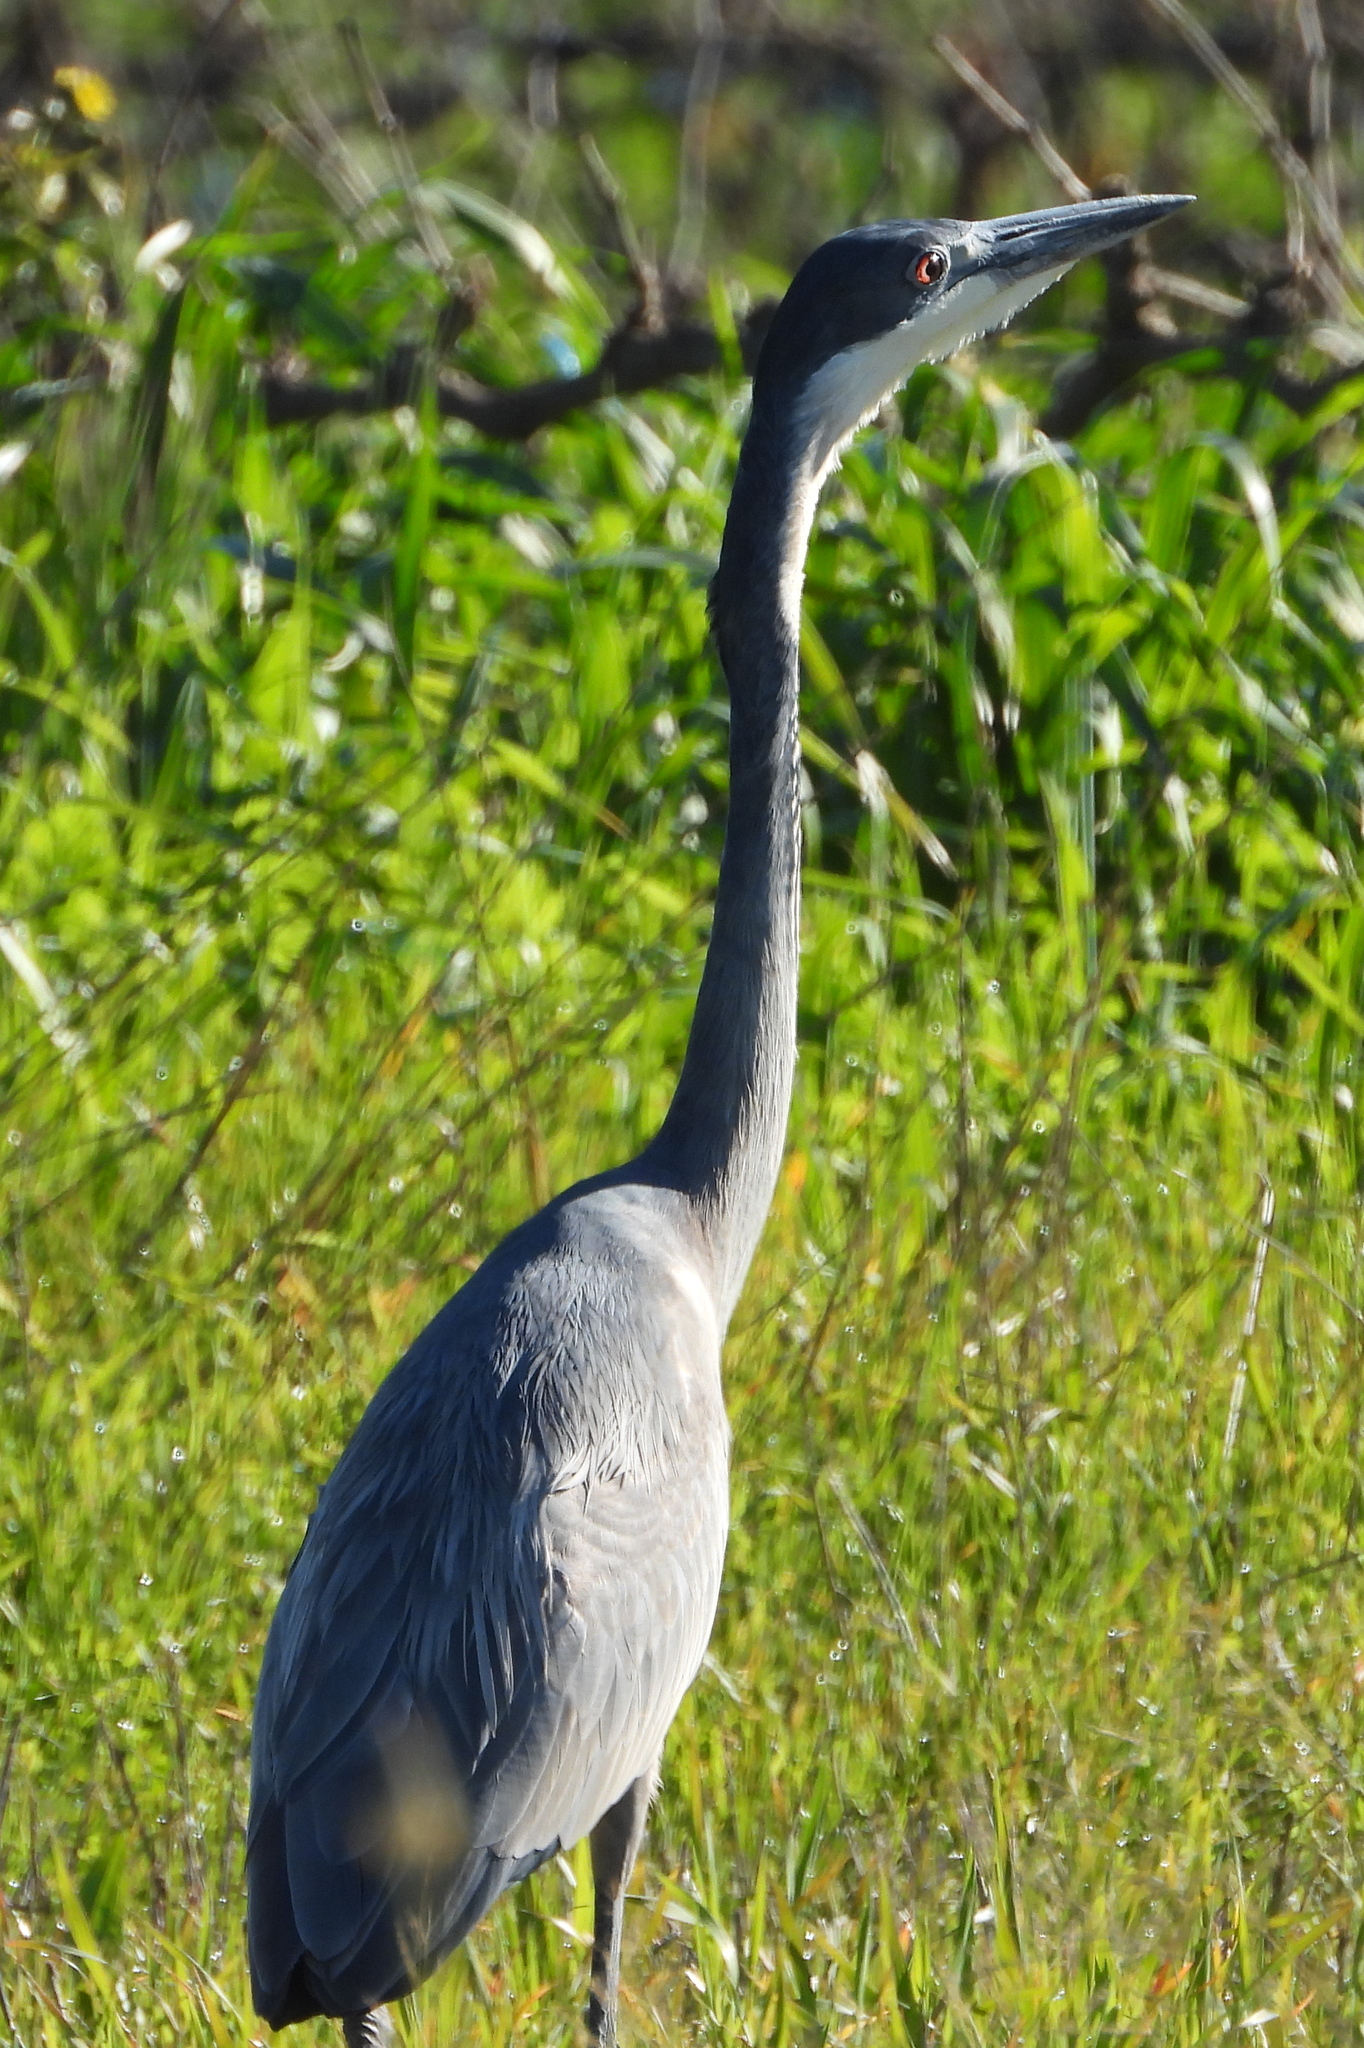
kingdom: Animalia
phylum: Chordata
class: Aves
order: Pelecaniformes
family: Ardeidae
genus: Ardea
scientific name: Ardea melanocephala
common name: Black-headed heron
